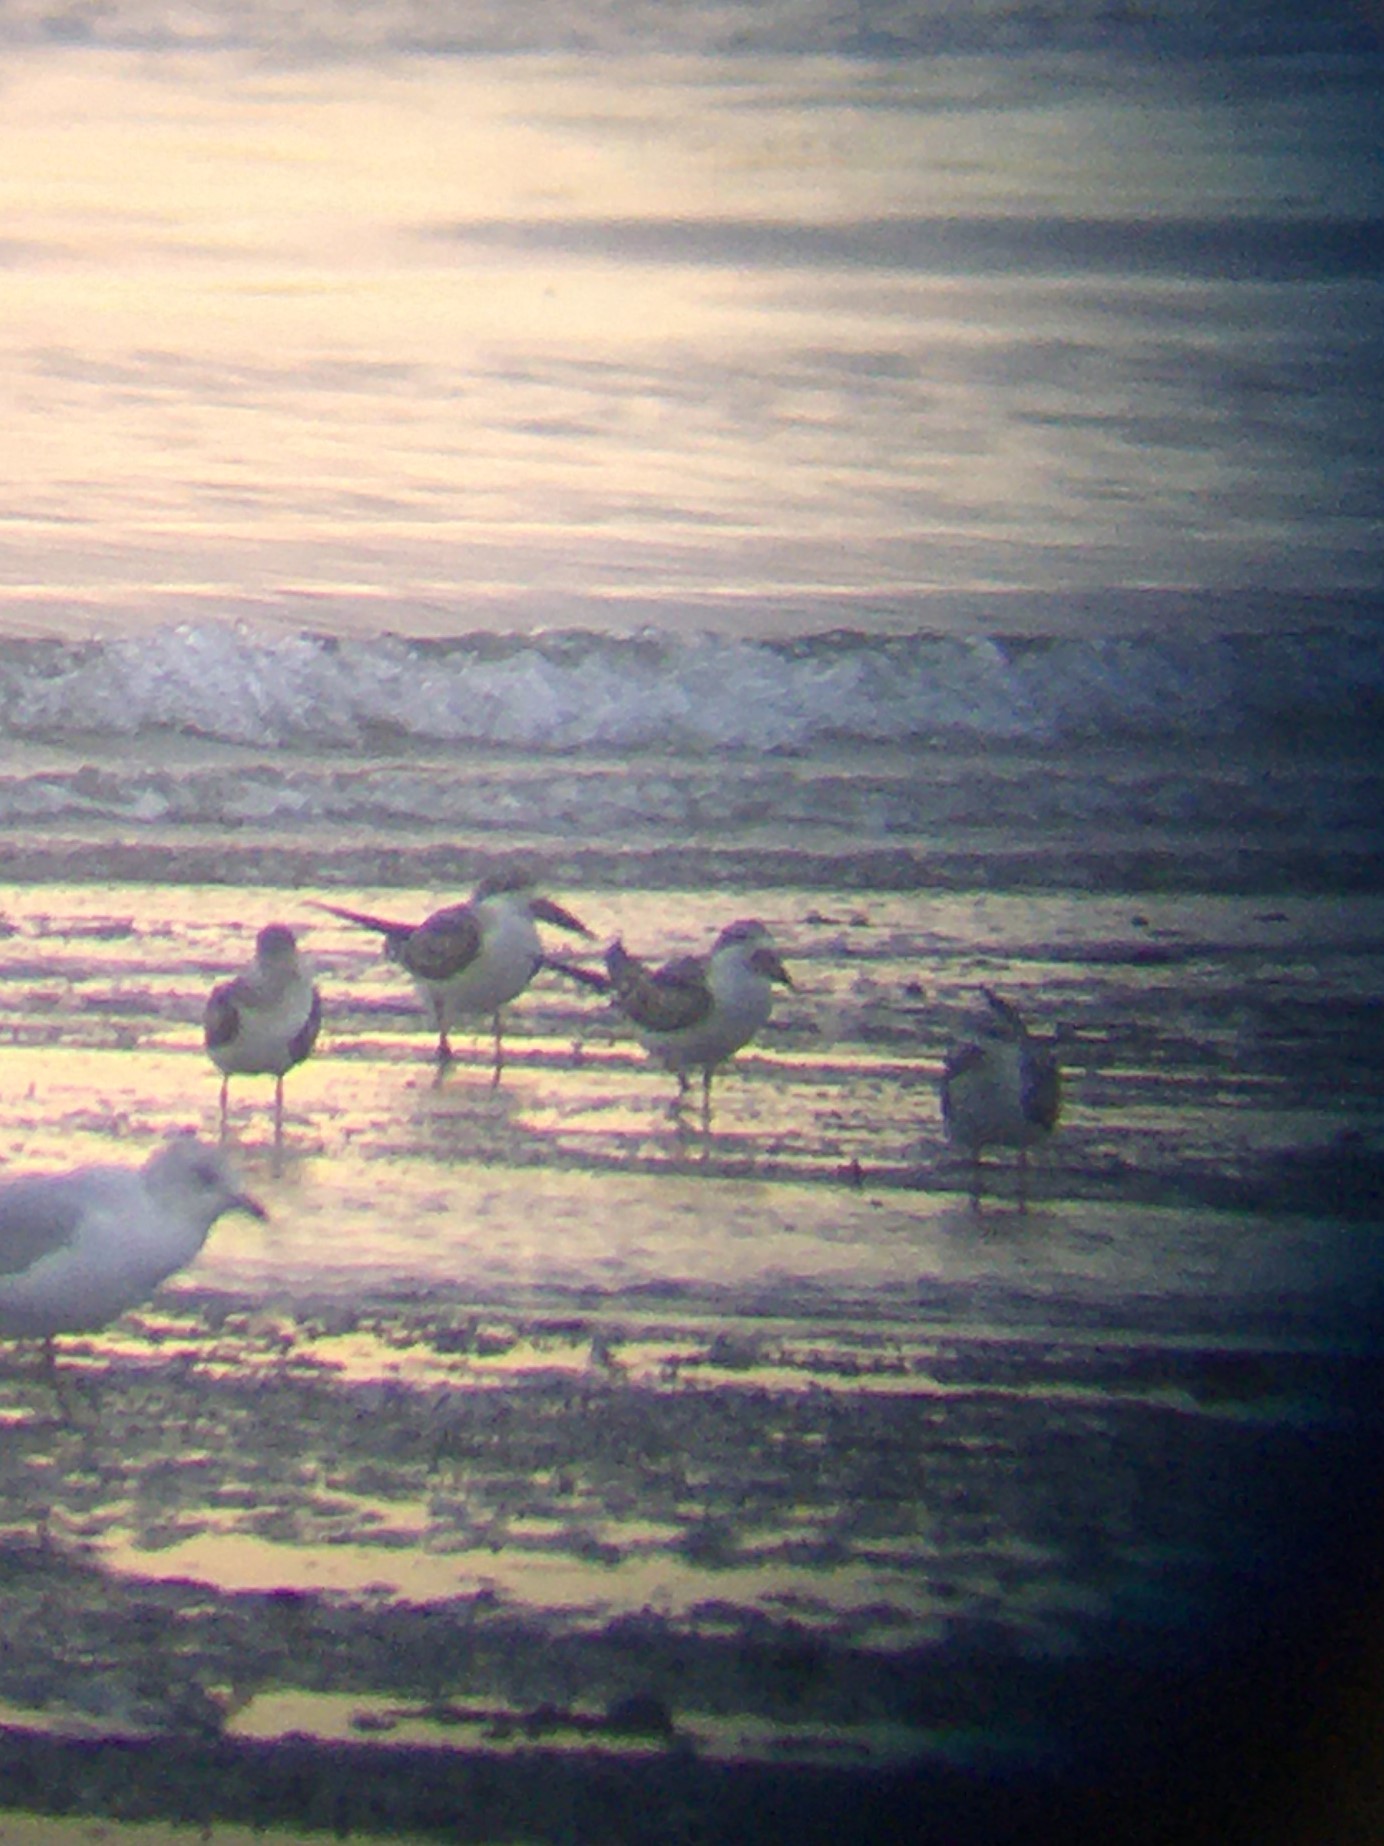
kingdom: Animalia
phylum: Chordata
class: Aves
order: Charadriiformes
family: Laridae
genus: Rynchops
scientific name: Rynchops niger
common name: Black skimmer
